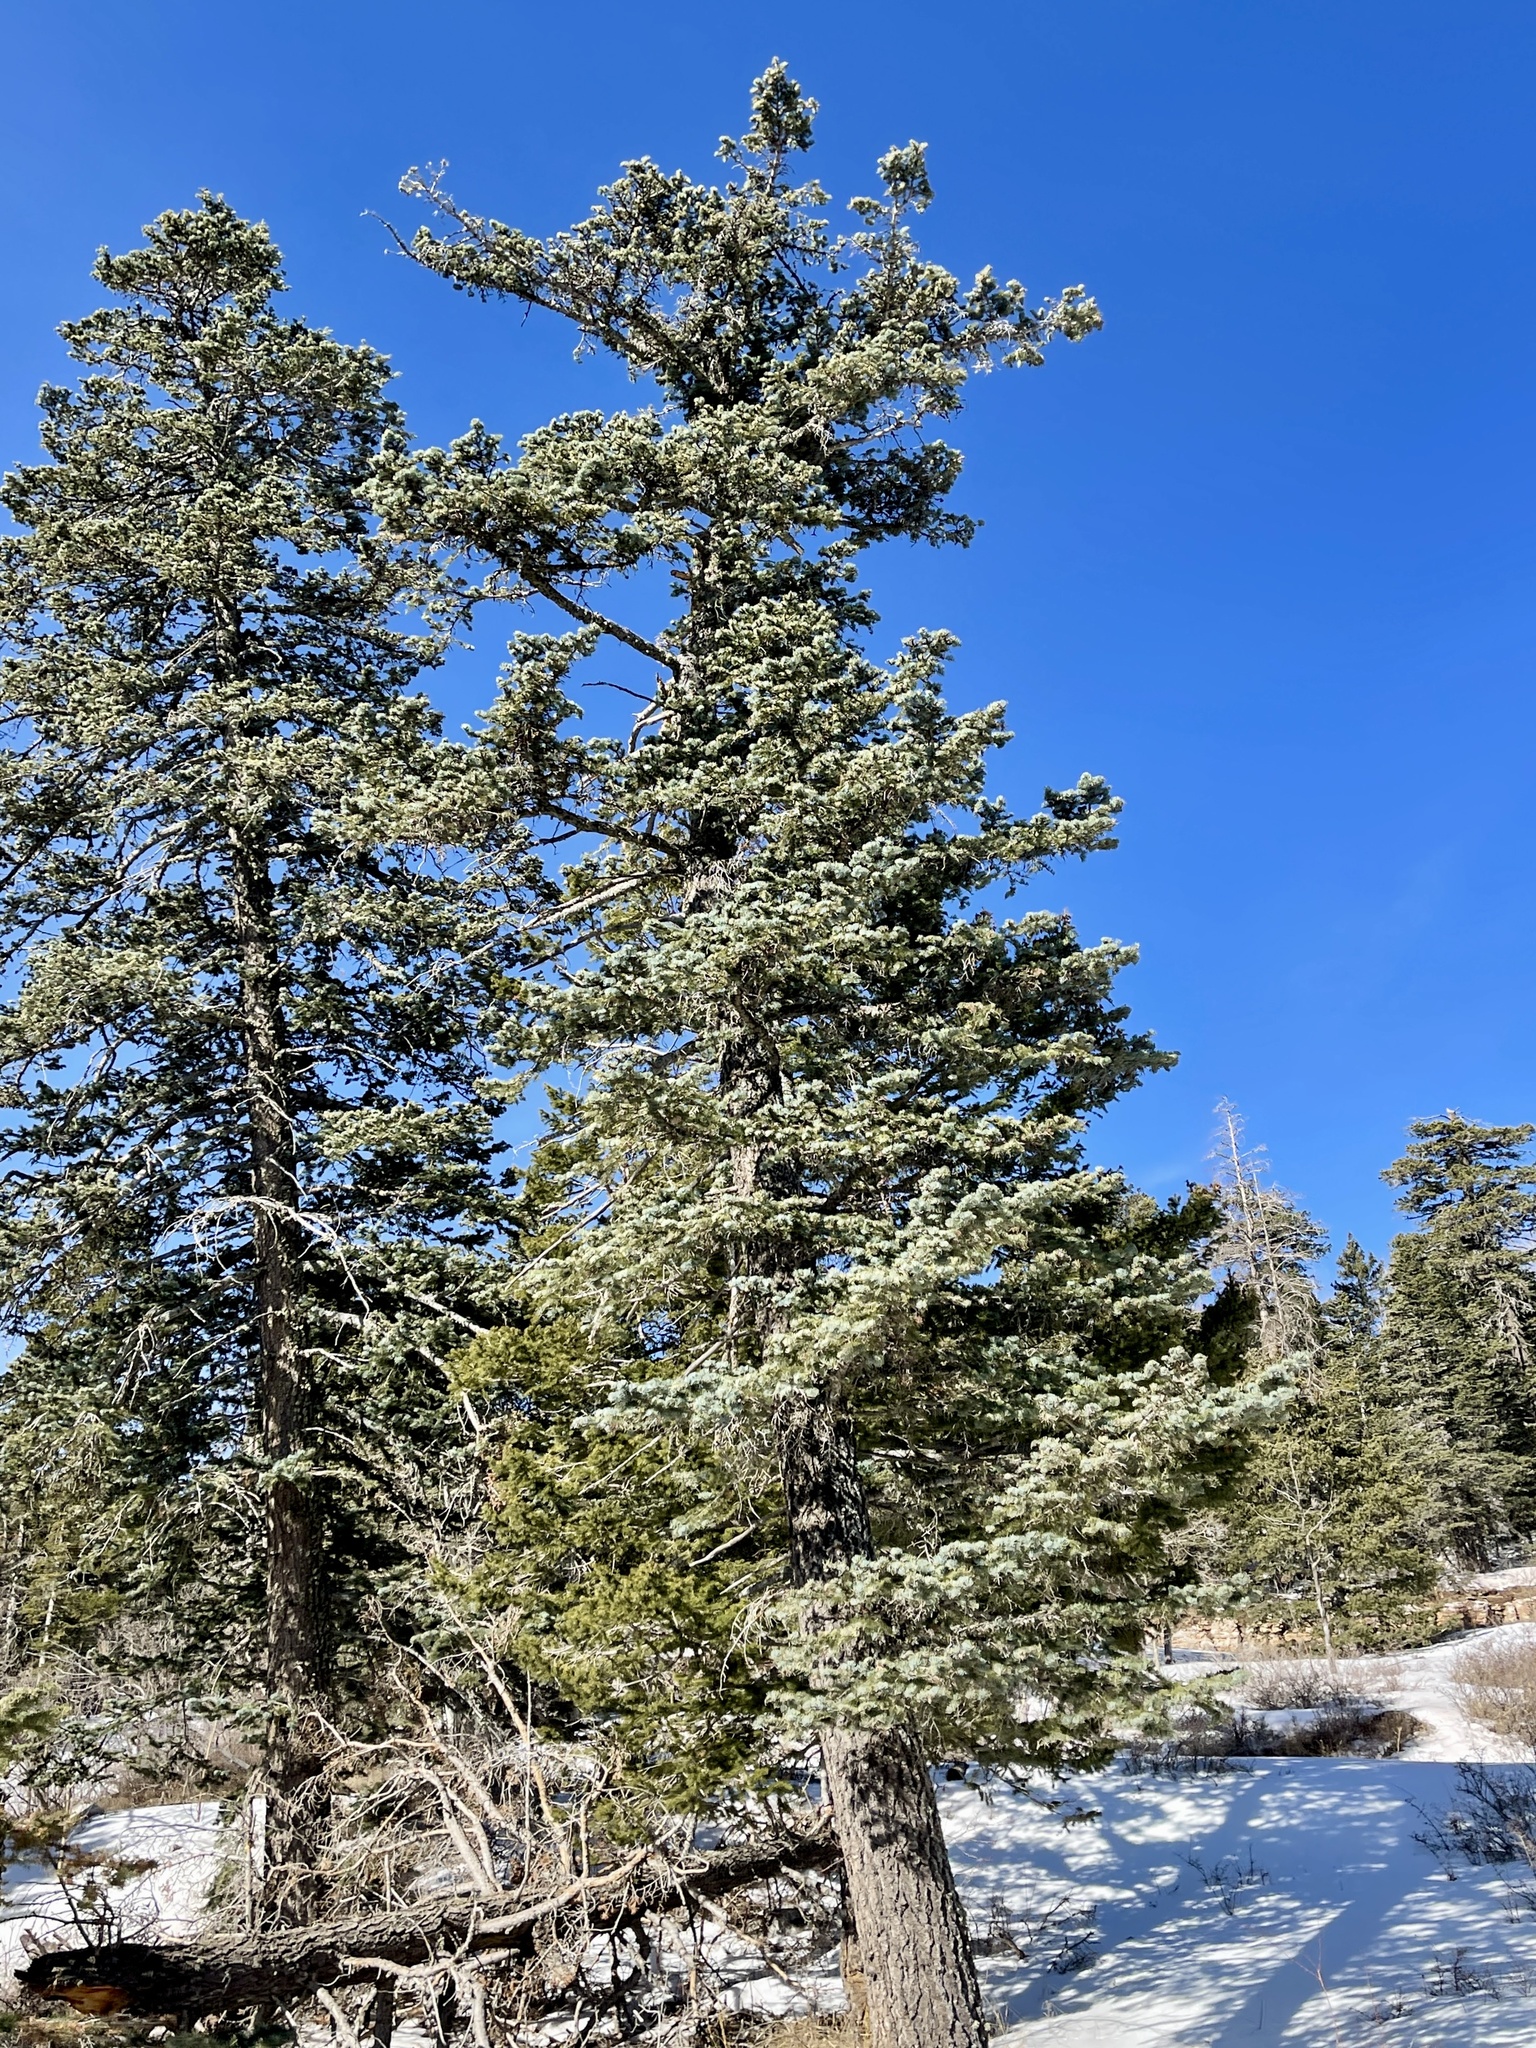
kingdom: Plantae
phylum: Tracheophyta
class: Pinopsida
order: Pinales
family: Pinaceae
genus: Abies
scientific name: Abies concolor
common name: Colorado fir
